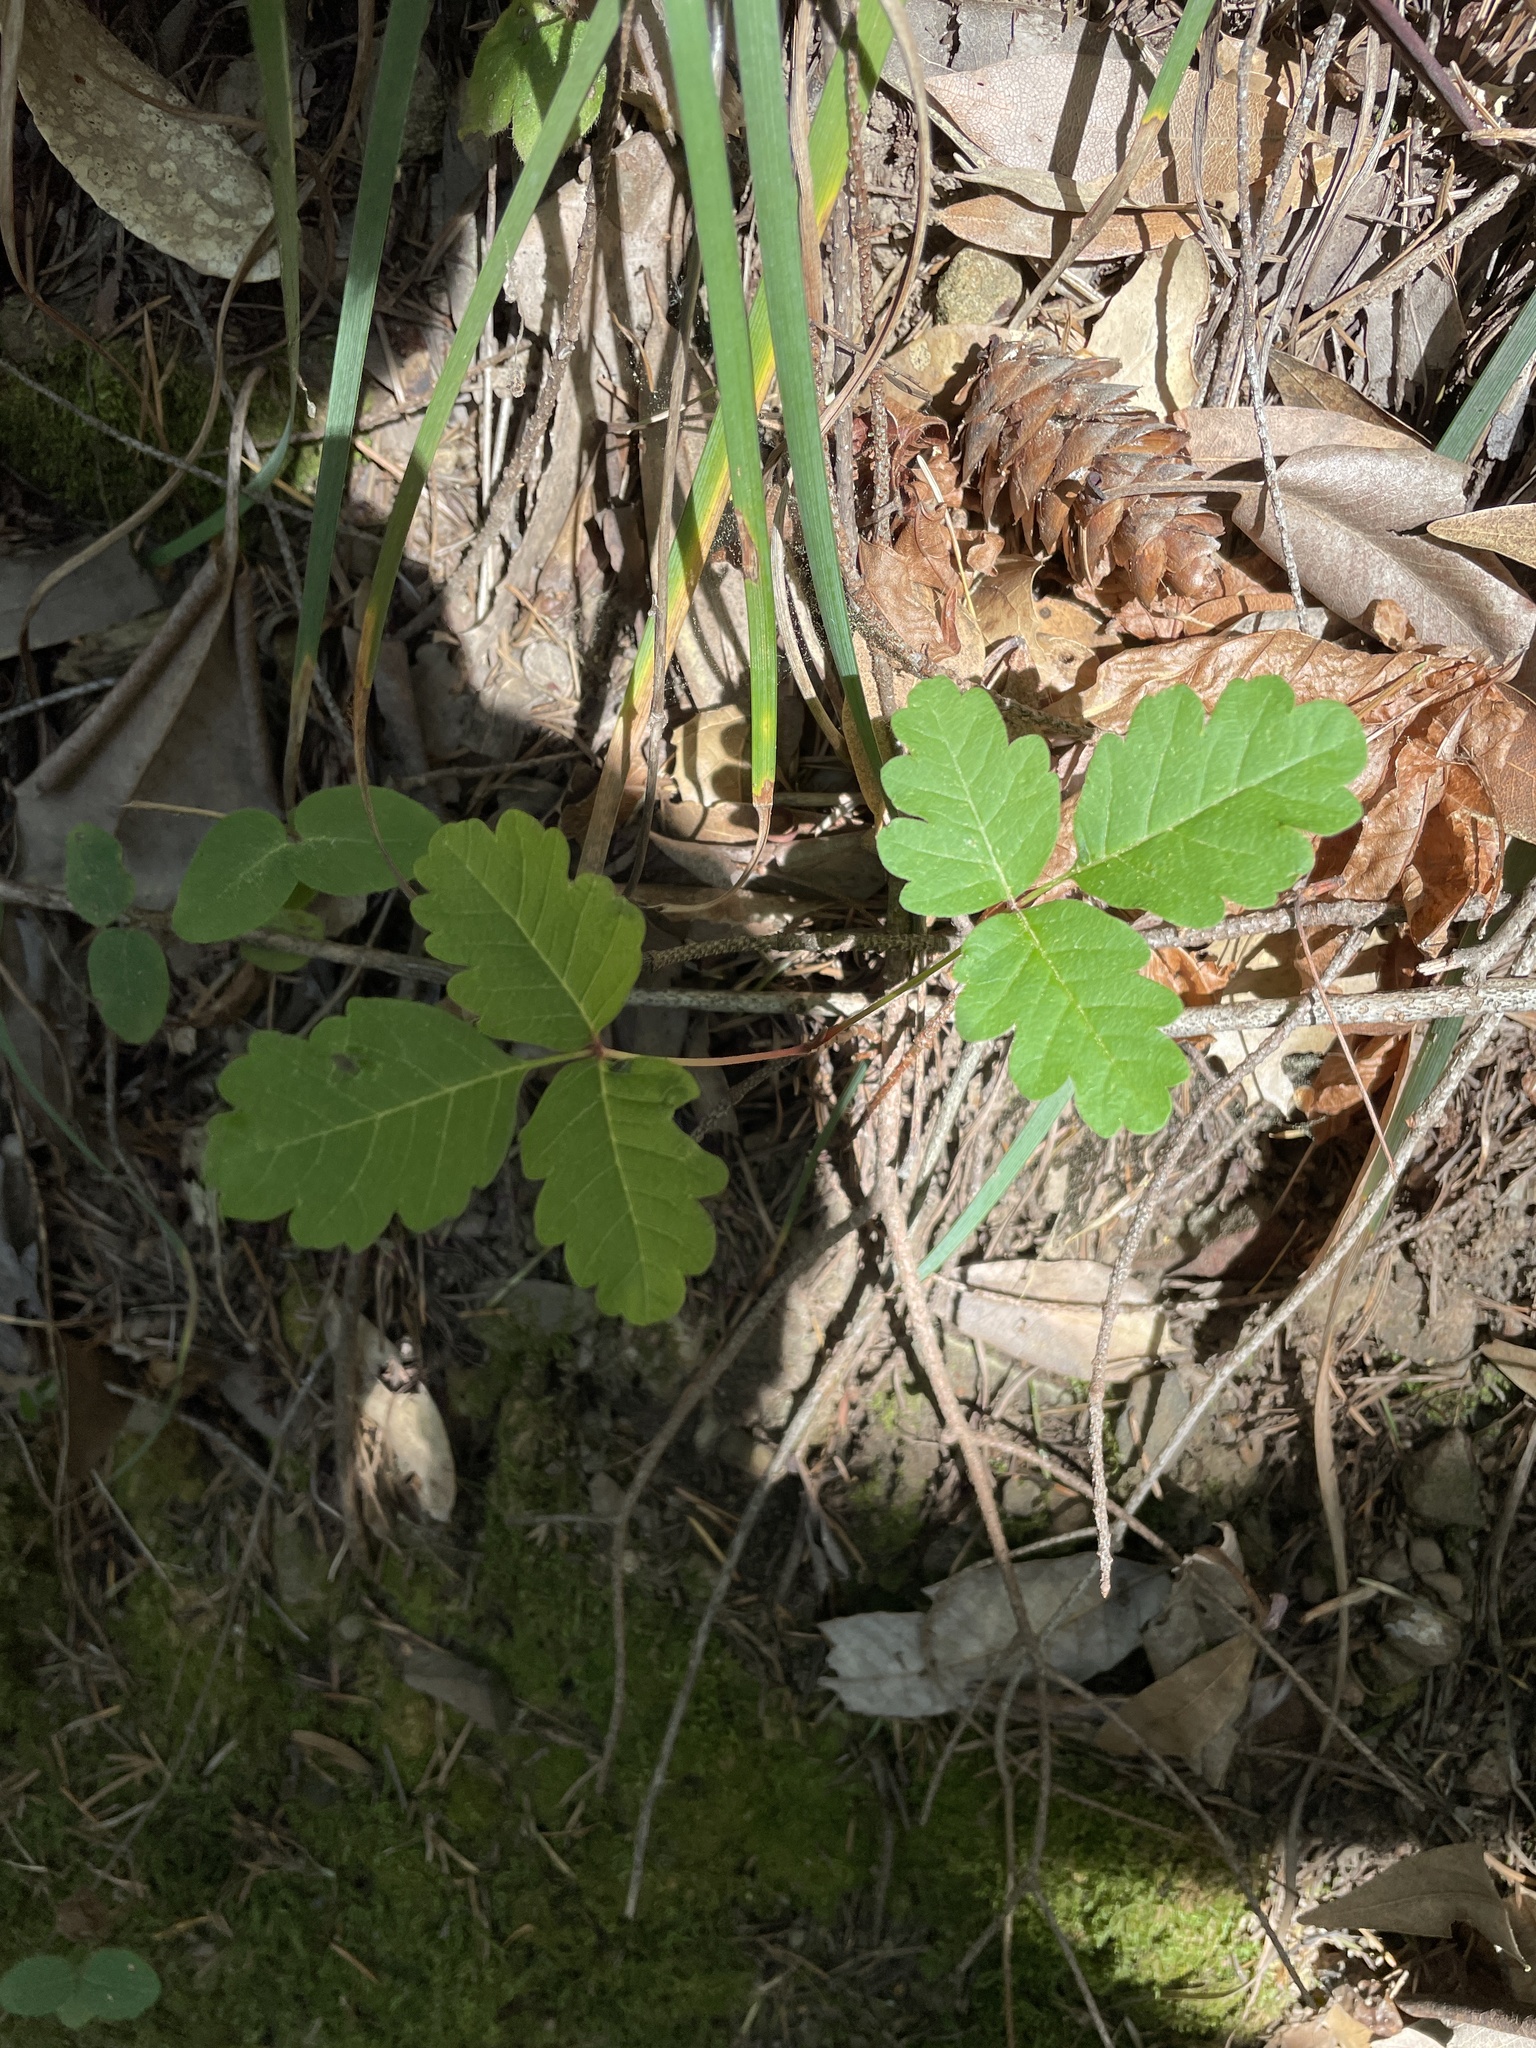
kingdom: Plantae
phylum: Tracheophyta
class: Magnoliopsida
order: Sapindales
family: Anacardiaceae
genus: Toxicodendron
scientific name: Toxicodendron diversilobum
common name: Pacific poison-oak
